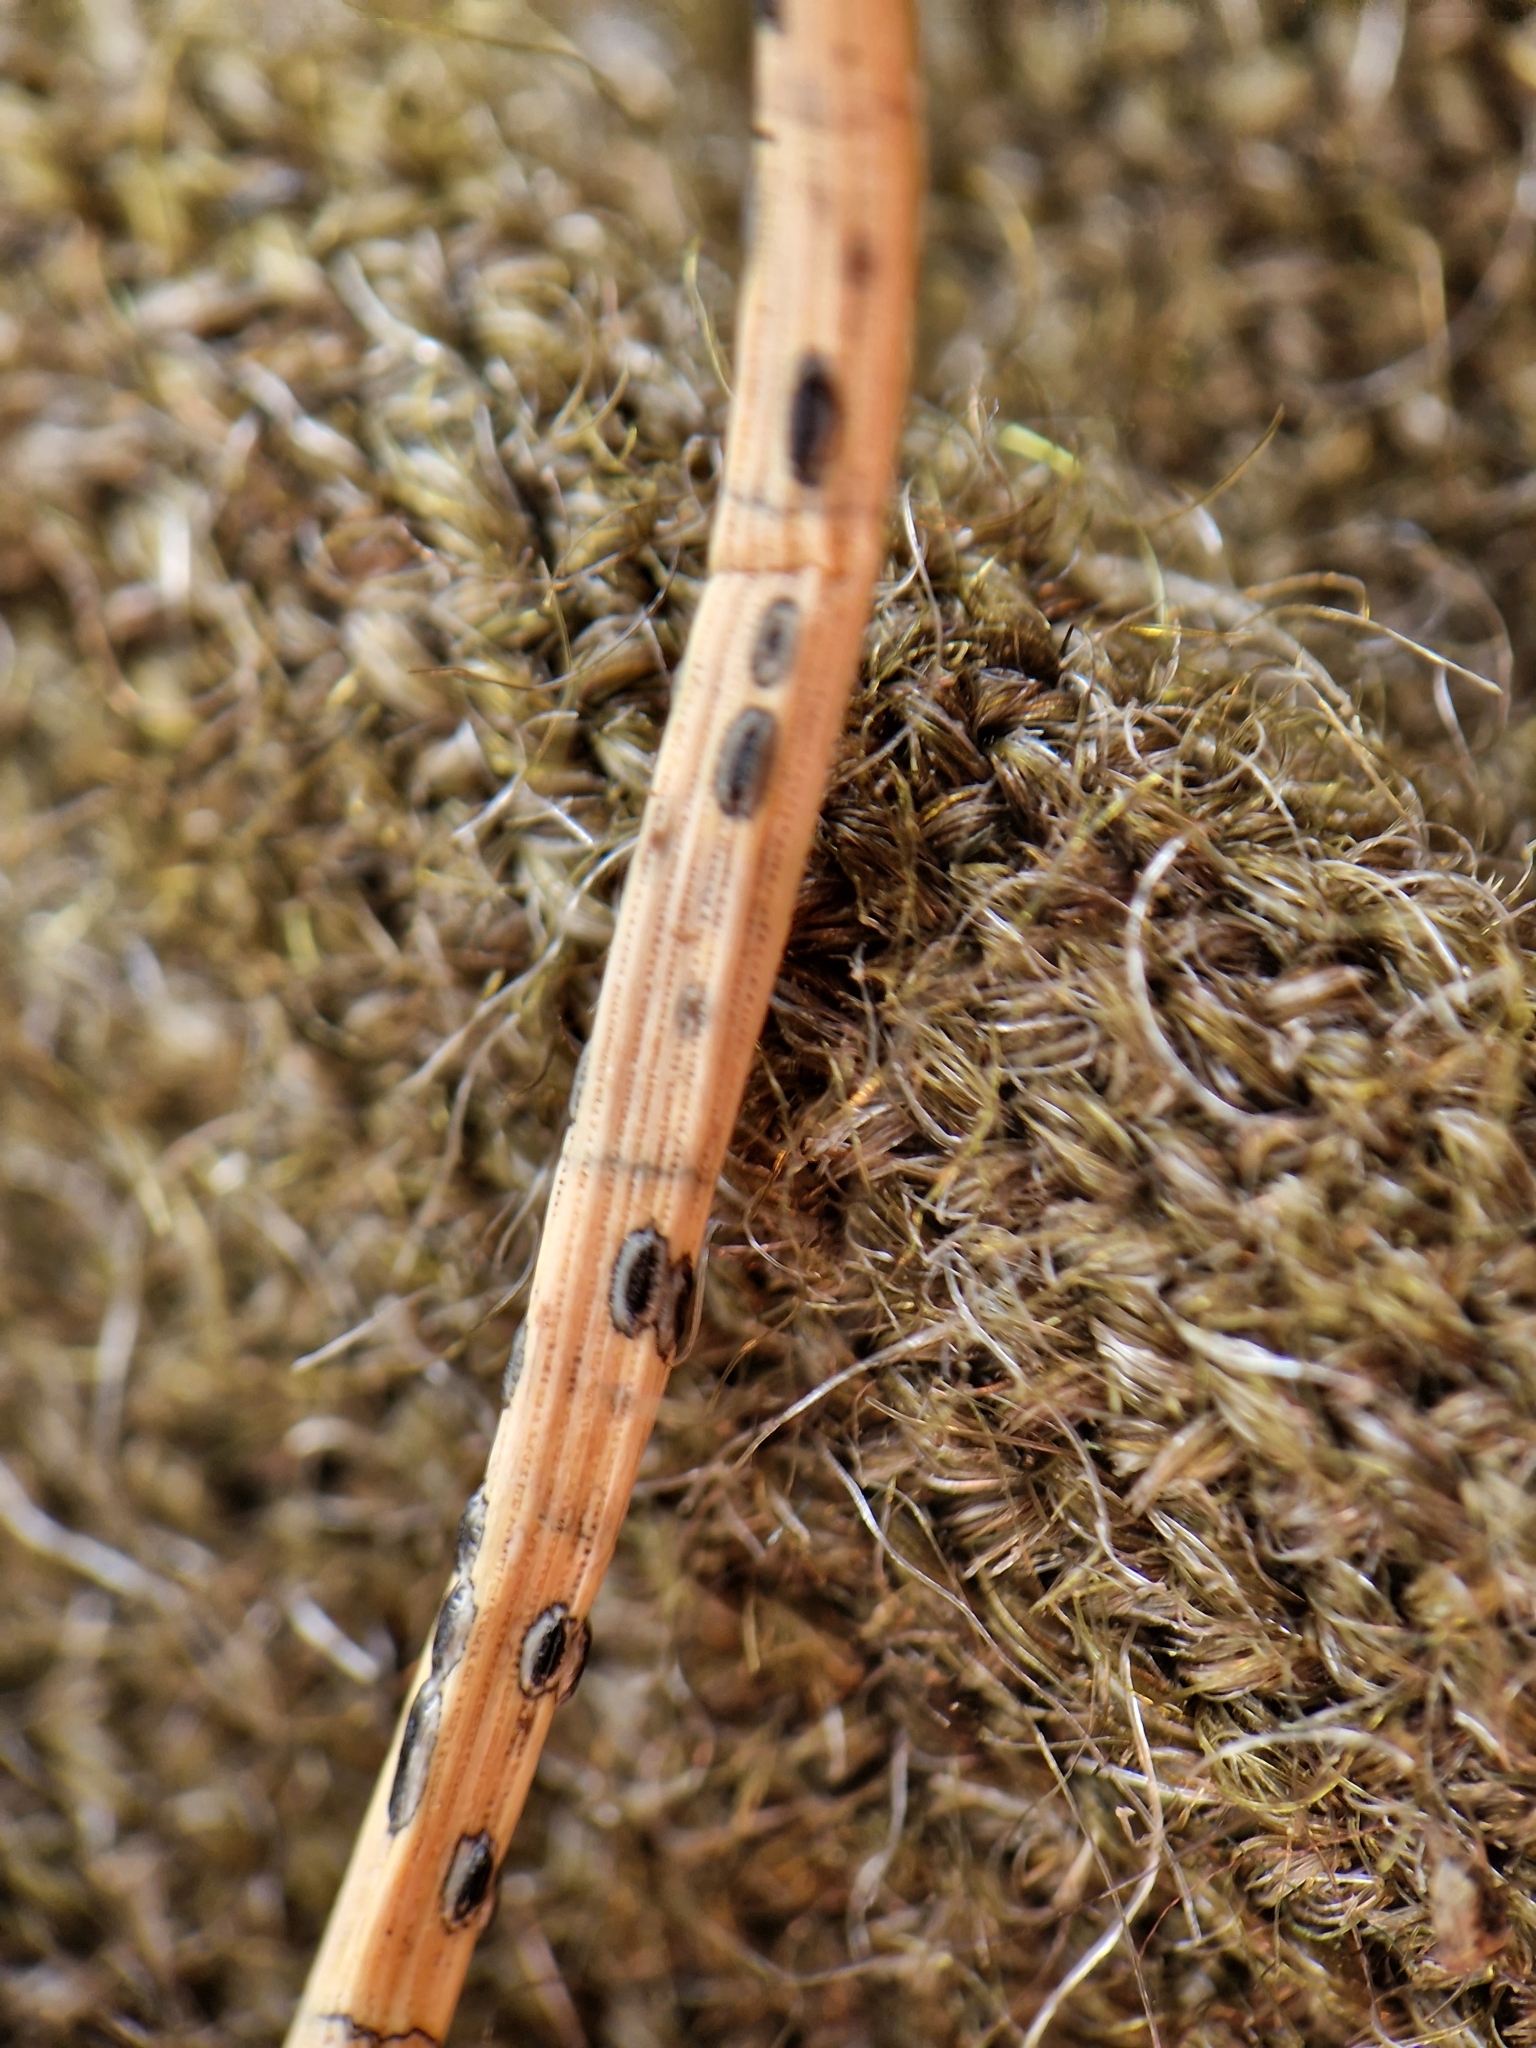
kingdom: Fungi
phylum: Ascomycota
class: Leotiomycetes
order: Rhytismatales
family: Rhytismataceae
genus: Lophodermium
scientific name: Lophodermium pinastri
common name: Pine needle split
